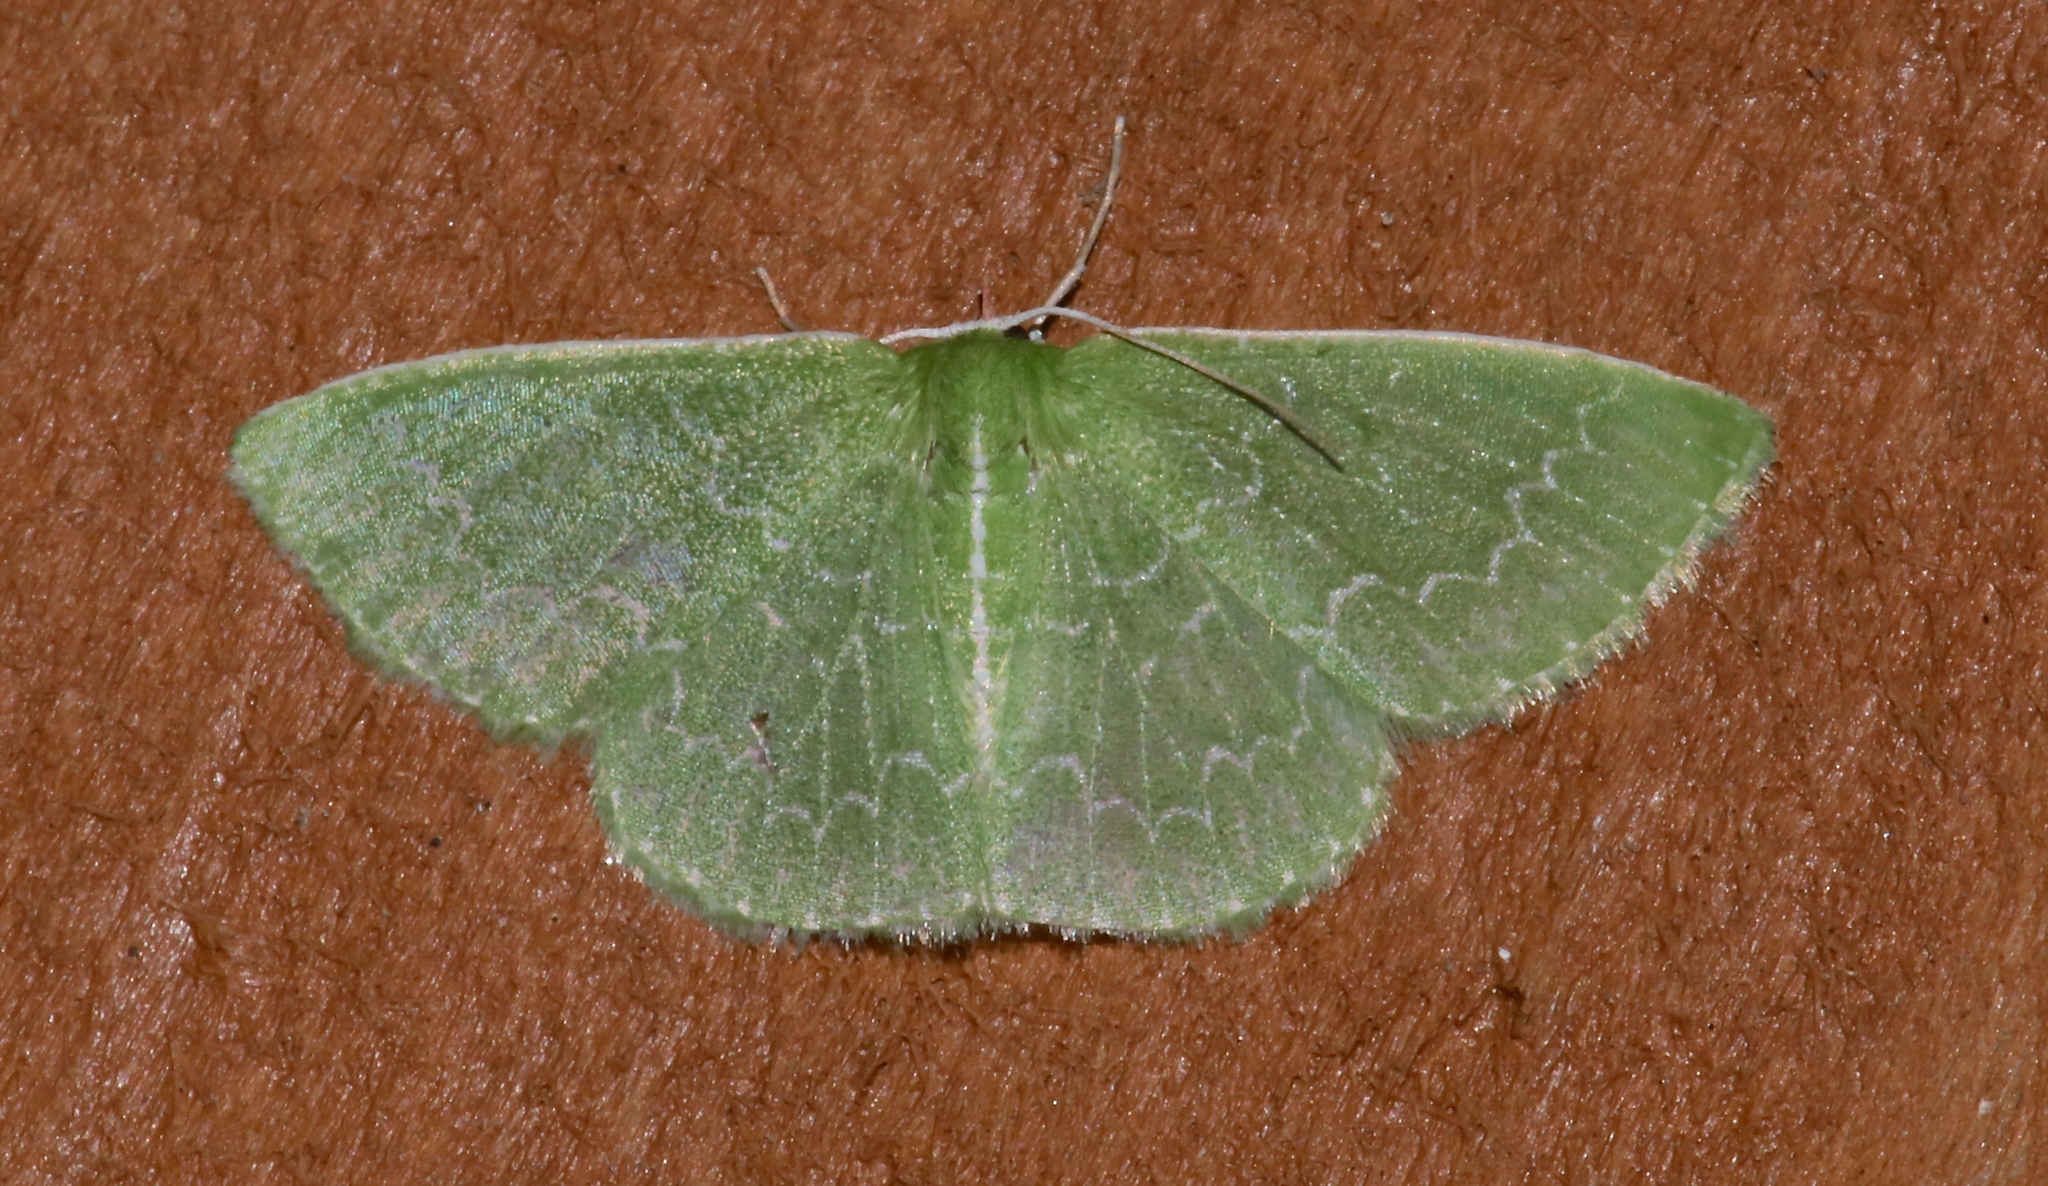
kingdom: Animalia
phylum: Arthropoda
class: Insecta
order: Lepidoptera
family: Geometridae
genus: Synchlora
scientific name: Synchlora frondaria
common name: Southern emerald
